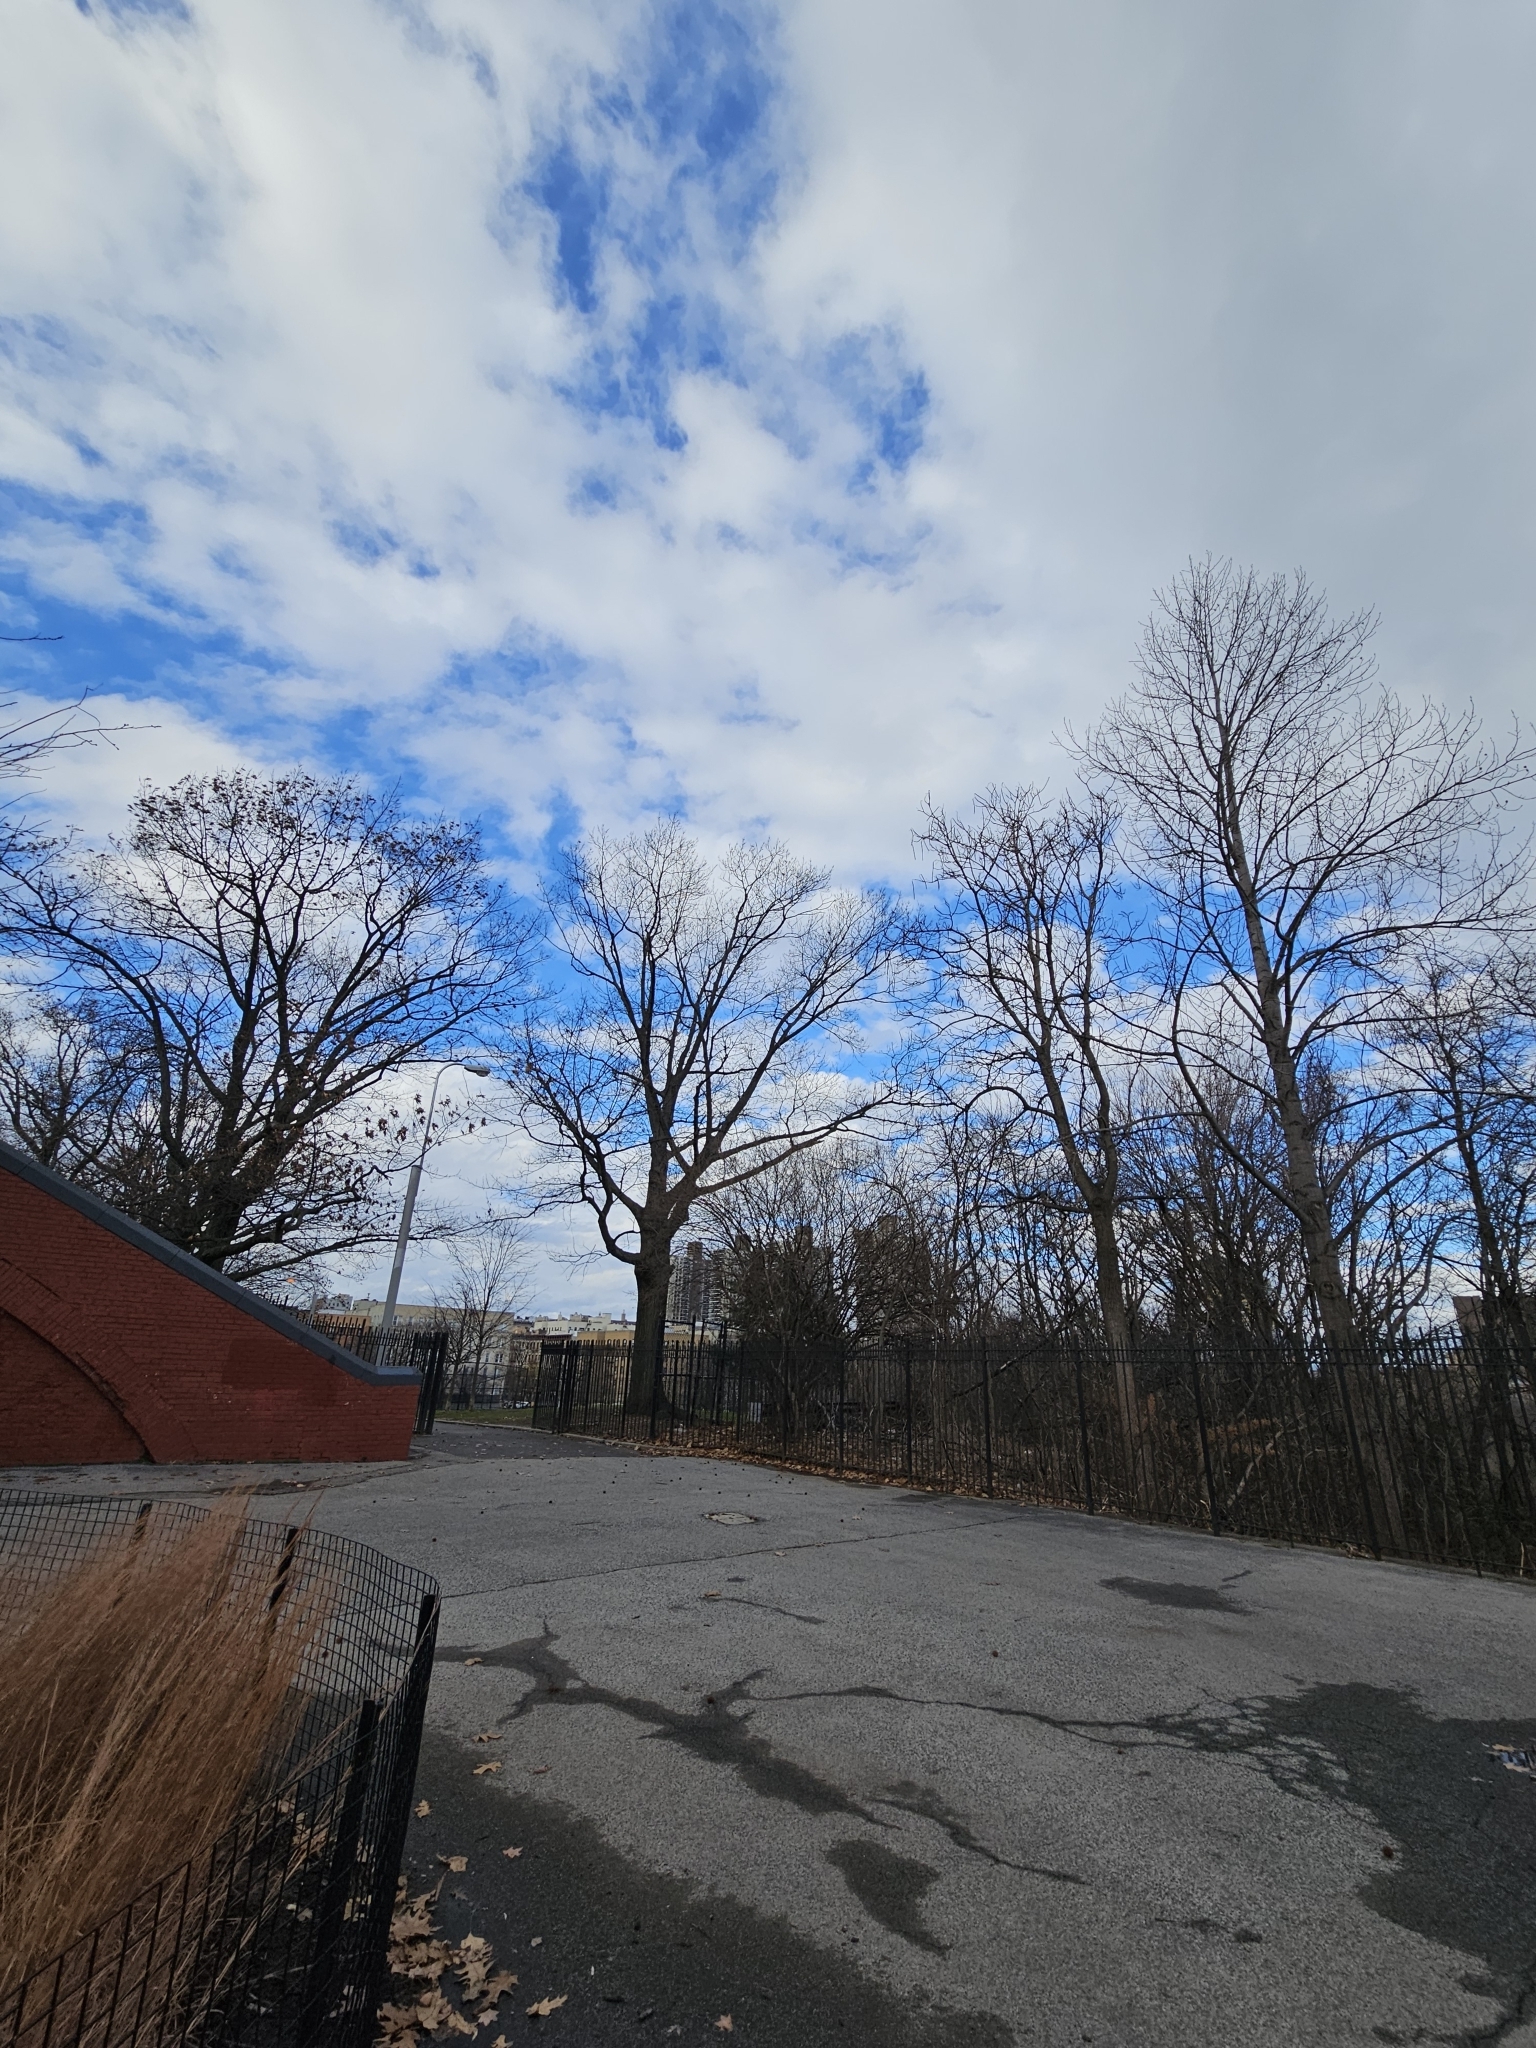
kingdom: Plantae
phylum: Tracheophyta
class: Magnoliopsida
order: Lamiales
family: Bignoniaceae
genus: Catalpa
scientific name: Catalpa
